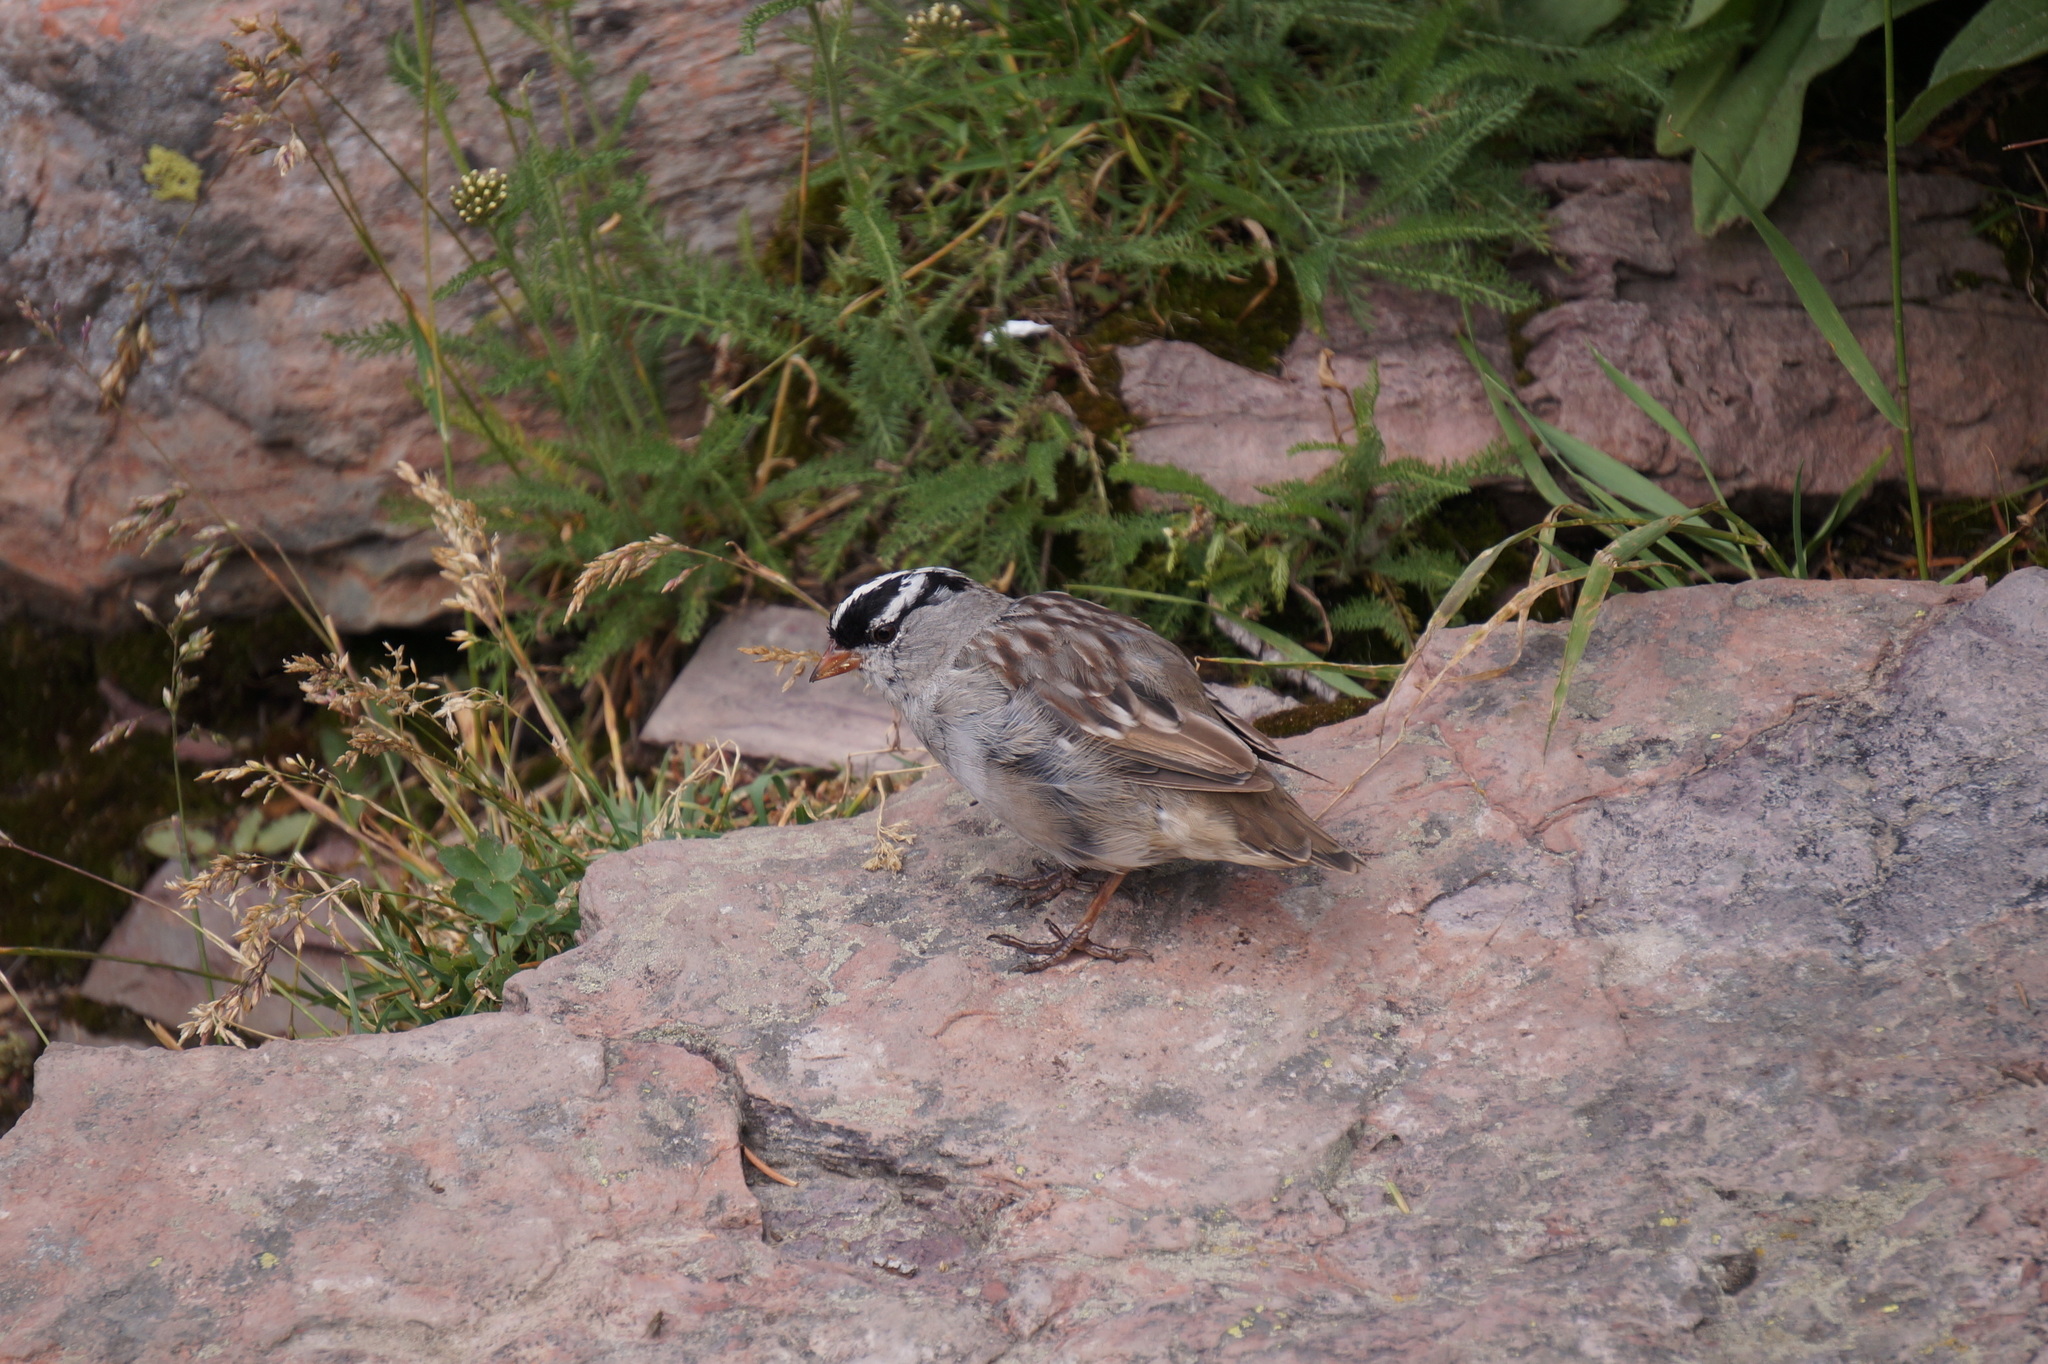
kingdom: Animalia
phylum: Chordata
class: Aves
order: Passeriformes
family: Passerellidae
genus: Zonotrichia
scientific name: Zonotrichia leucophrys
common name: White-crowned sparrow
